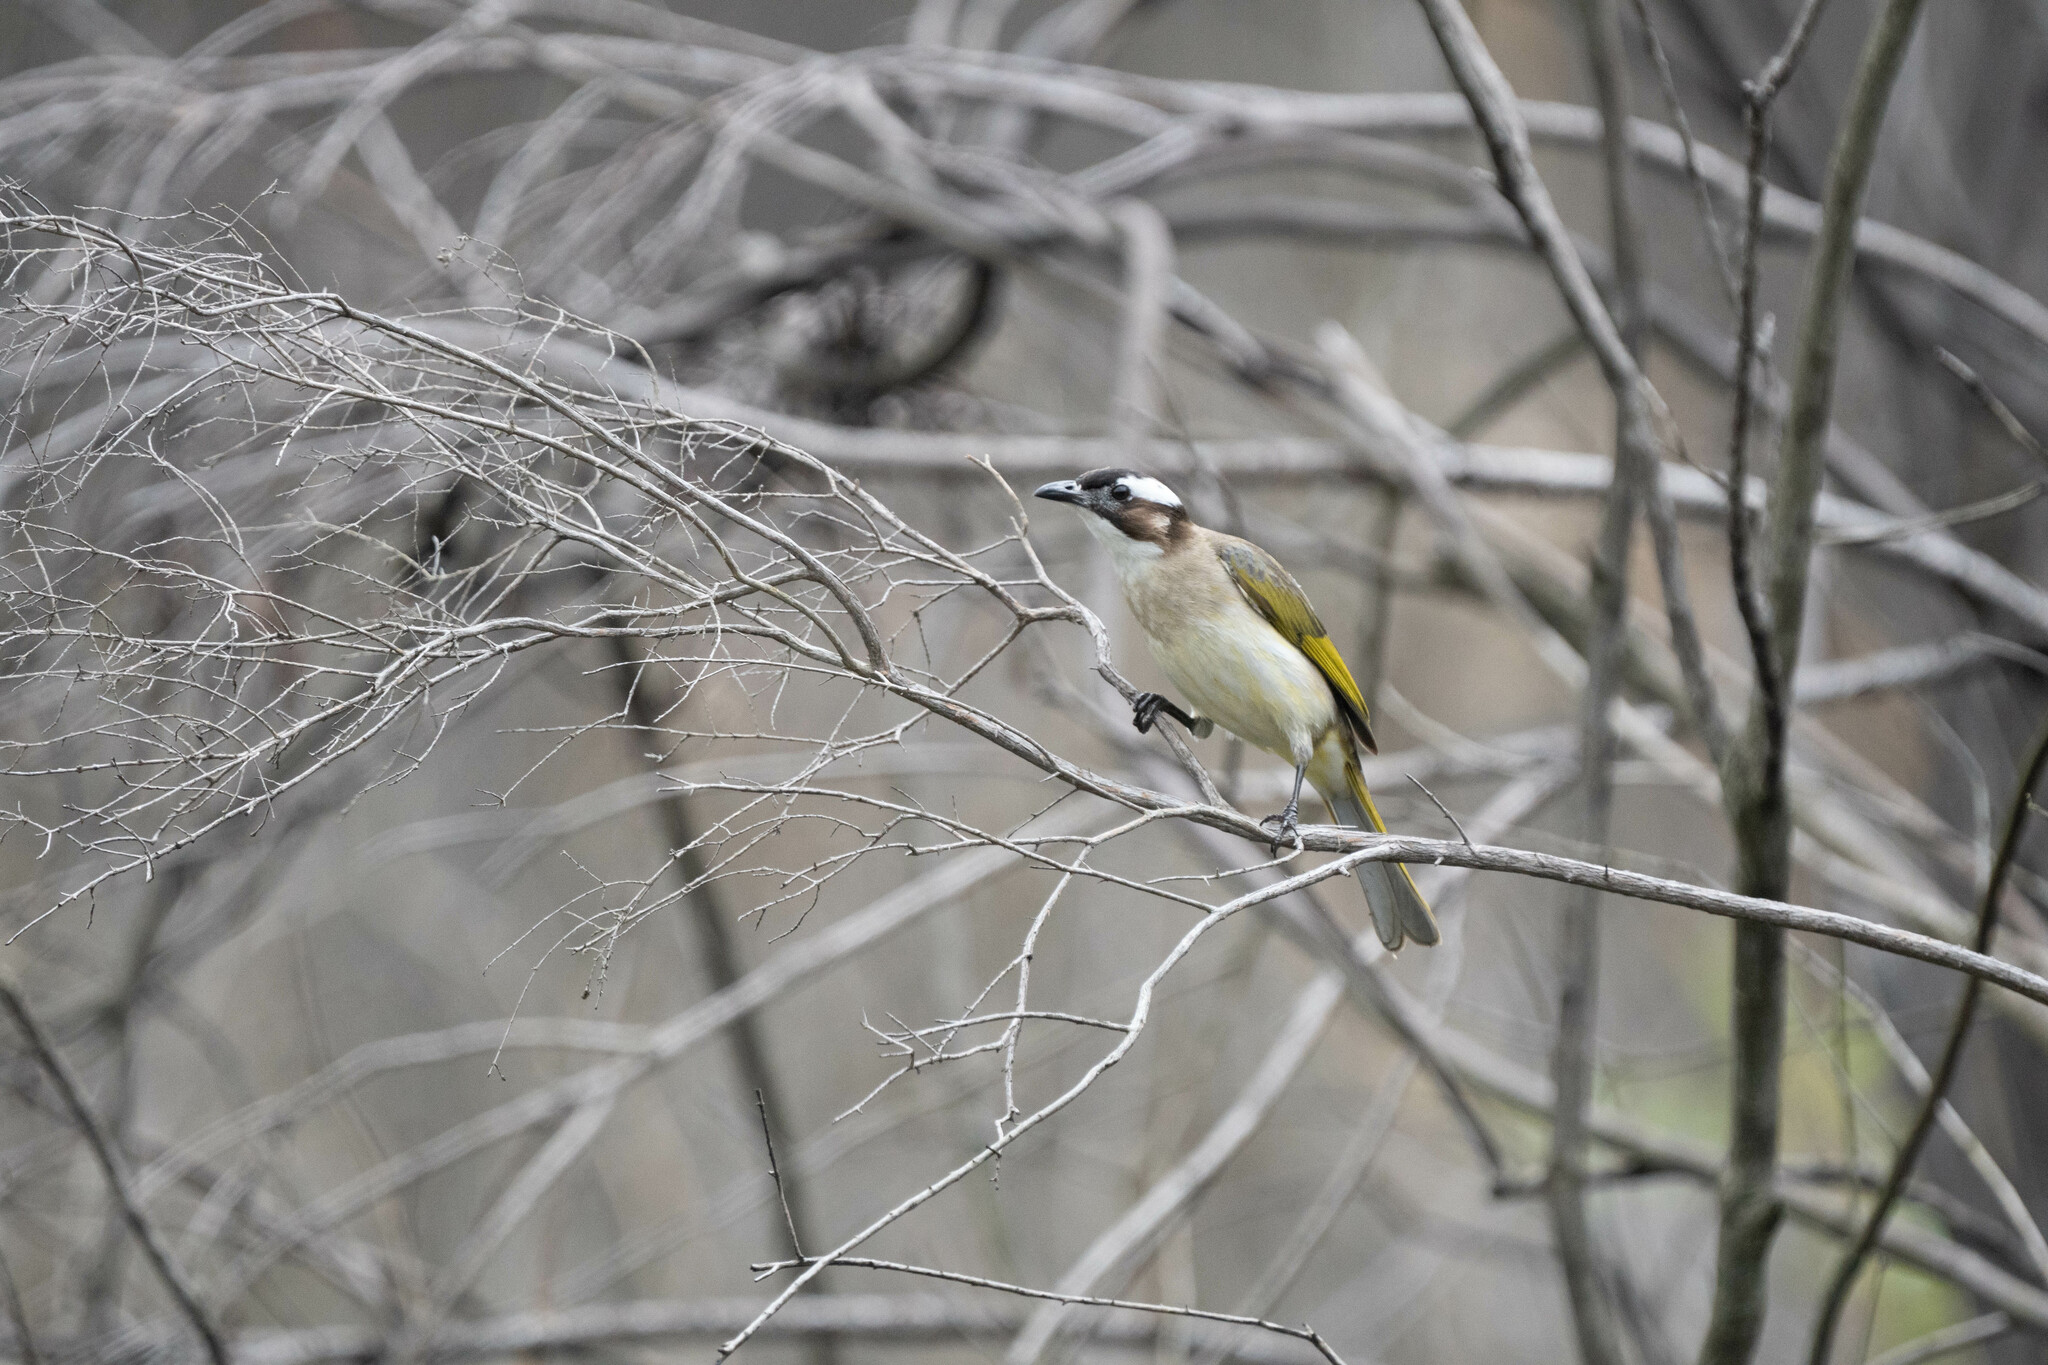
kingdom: Animalia
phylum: Chordata
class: Aves
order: Passeriformes
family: Pycnonotidae
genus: Pycnonotus
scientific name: Pycnonotus sinensis
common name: Light-vented bulbul
